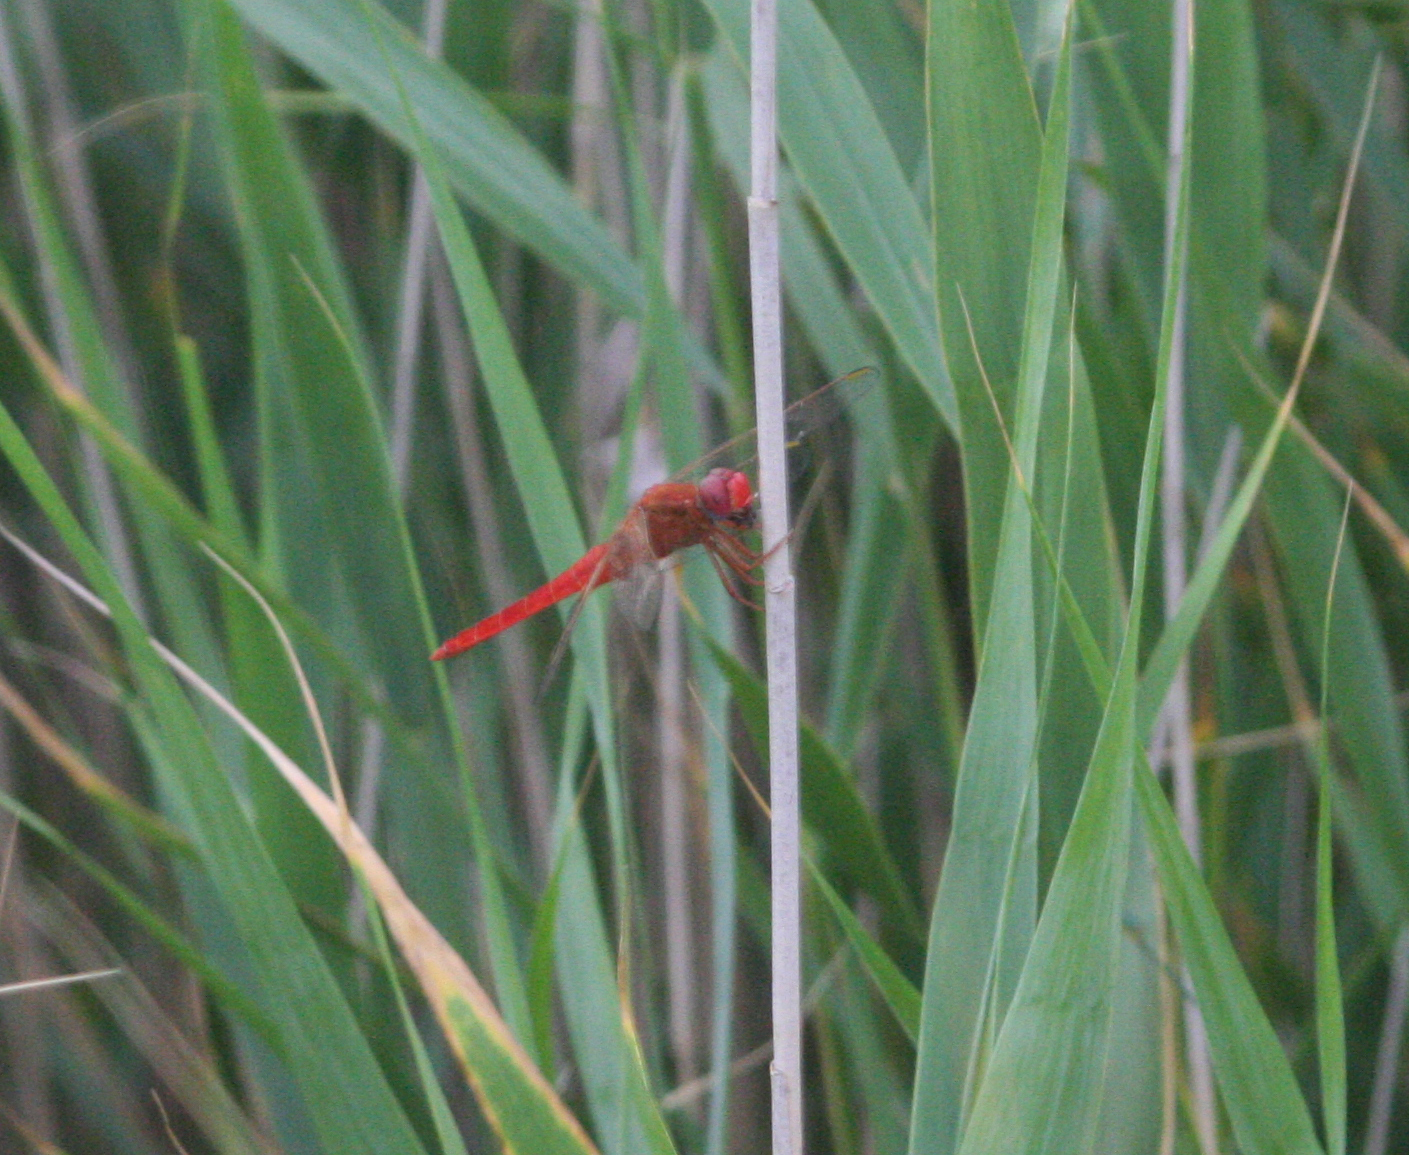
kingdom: Animalia
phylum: Arthropoda
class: Insecta
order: Odonata
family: Libellulidae
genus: Crocothemis
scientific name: Crocothemis erythraea
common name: Scarlet dragonfly
